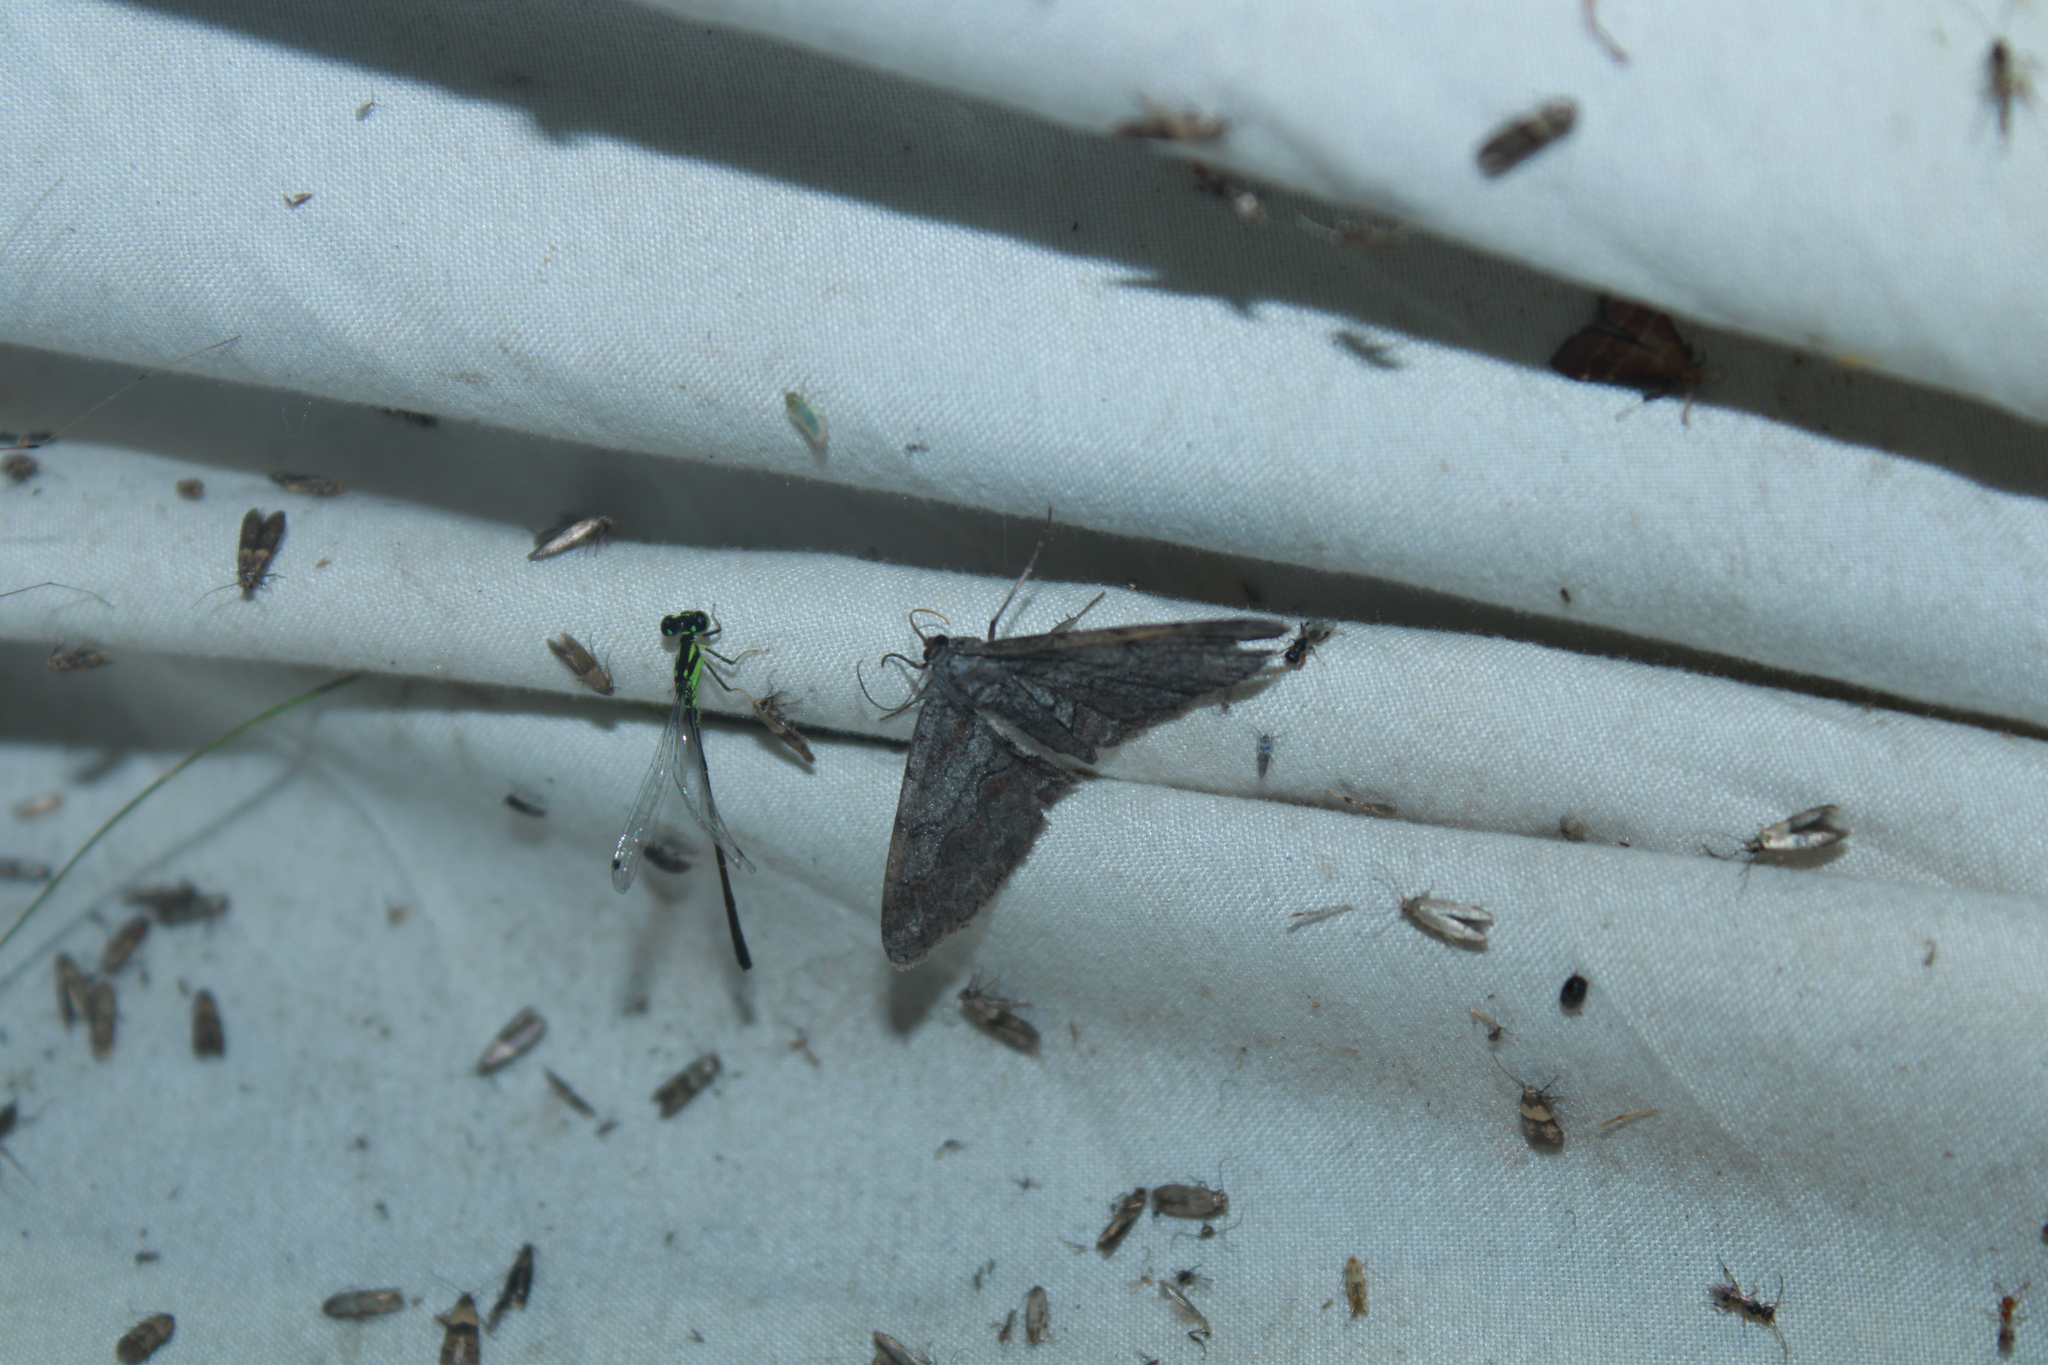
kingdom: Animalia
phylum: Arthropoda
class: Insecta
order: Lepidoptera
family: Geometridae
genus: Iridopsis
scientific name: Iridopsis vellivolata
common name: Large purplish gray
